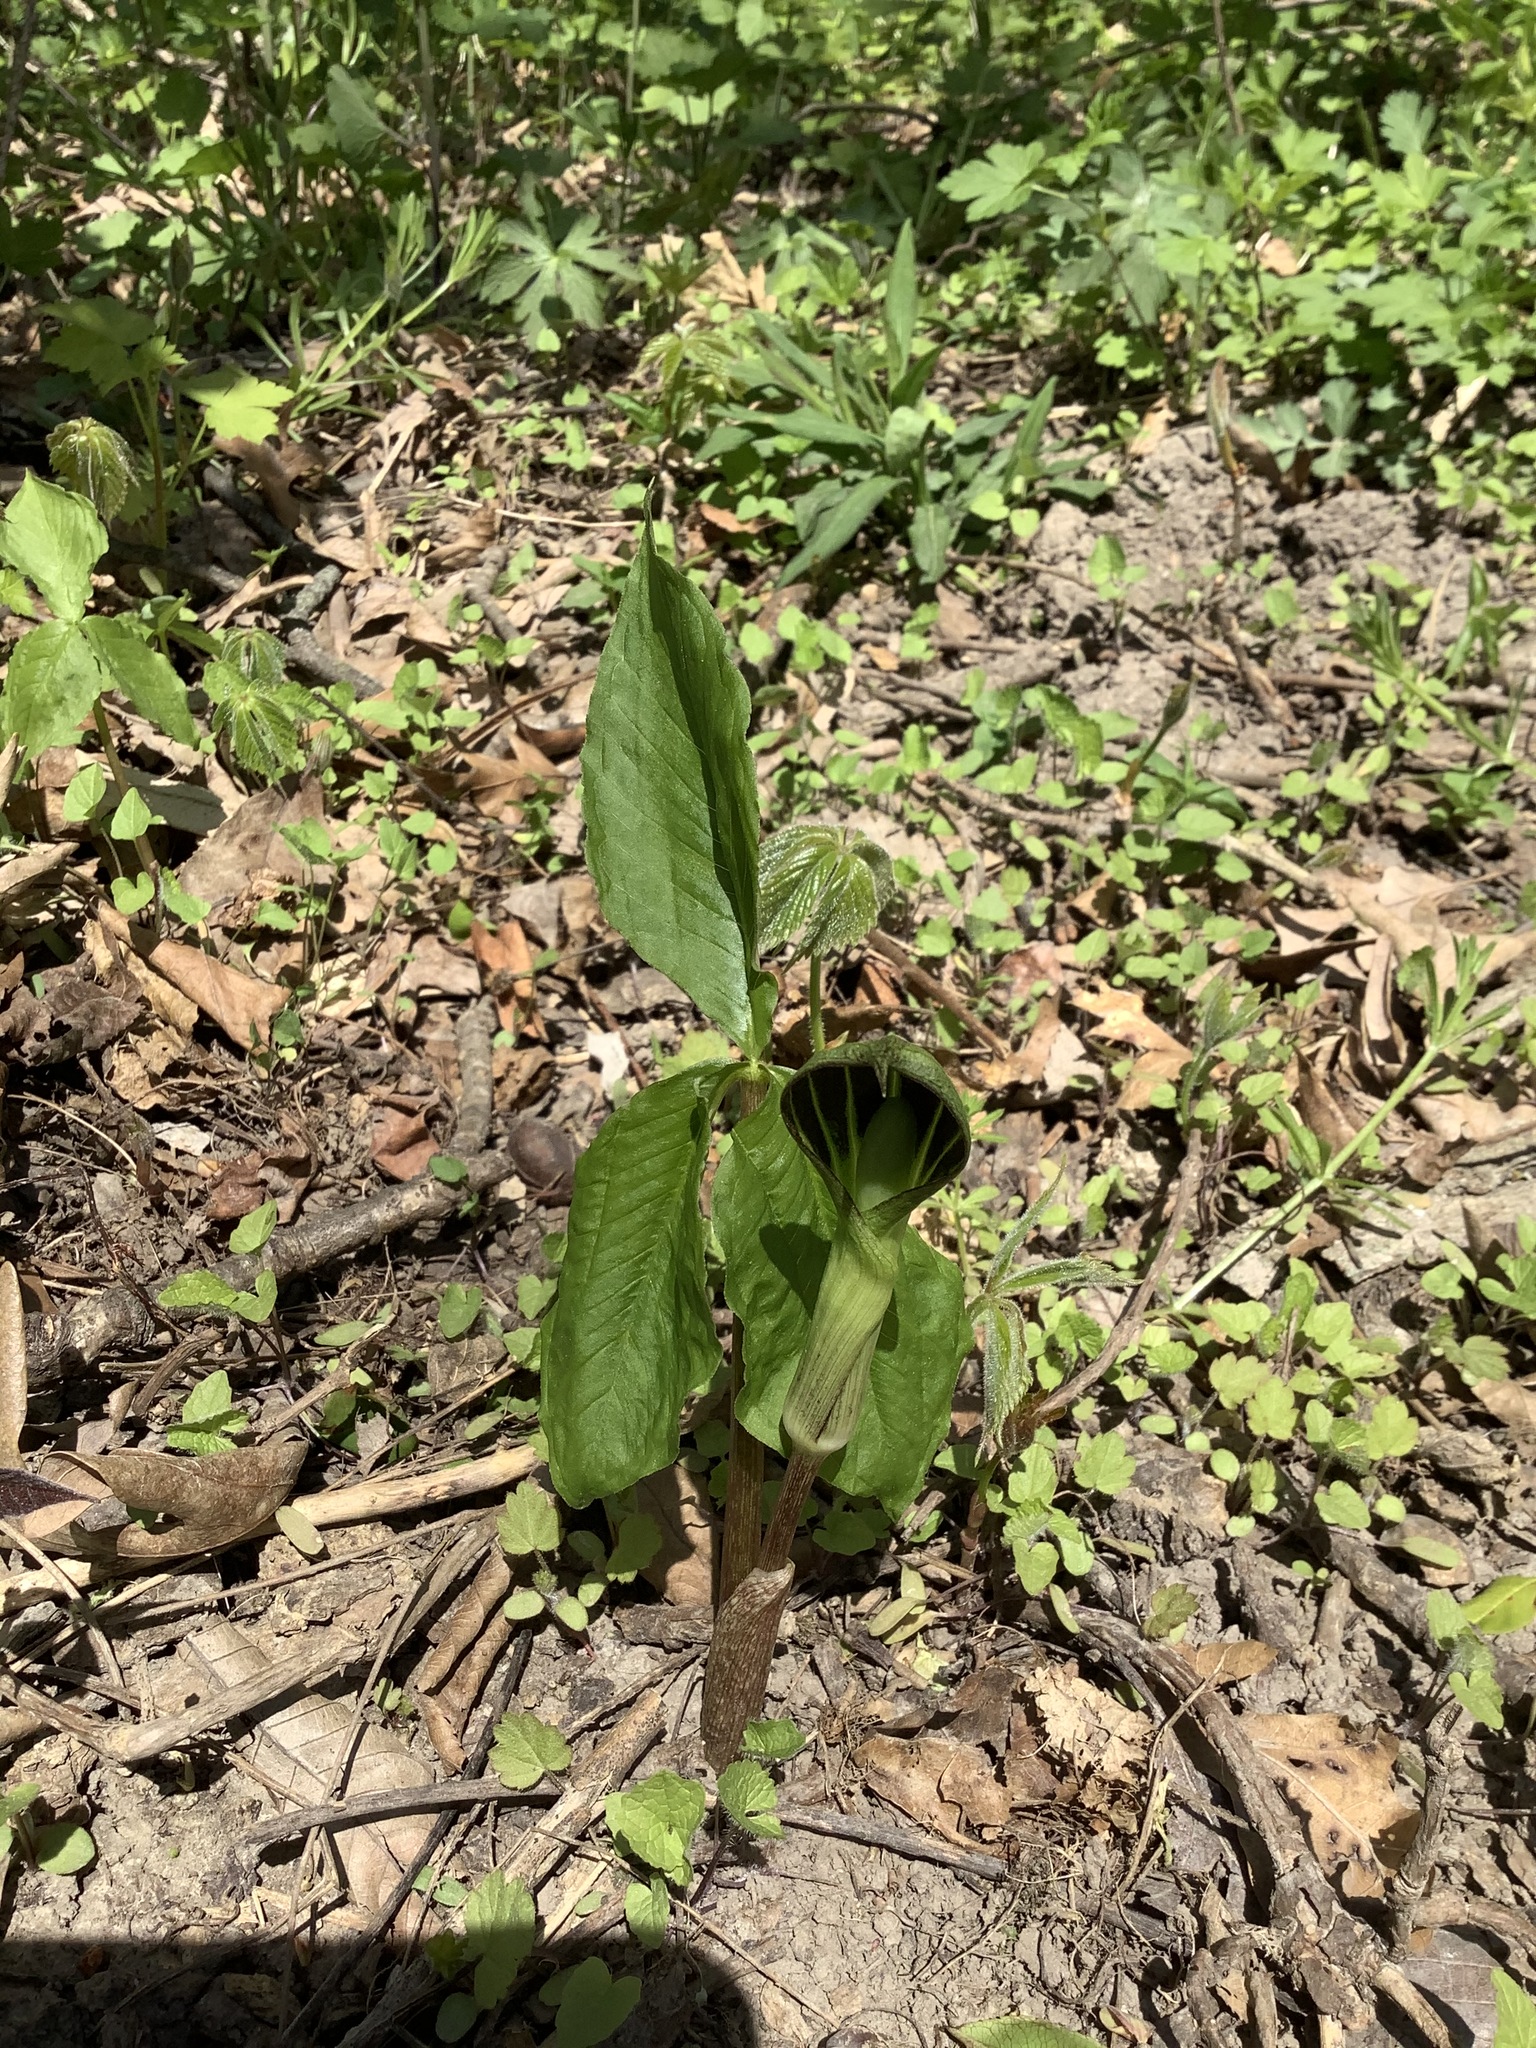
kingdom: Plantae
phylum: Tracheophyta
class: Liliopsida
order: Alismatales
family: Araceae
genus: Arisaema
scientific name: Arisaema triphyllum
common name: Jack-in-the-pulpit
